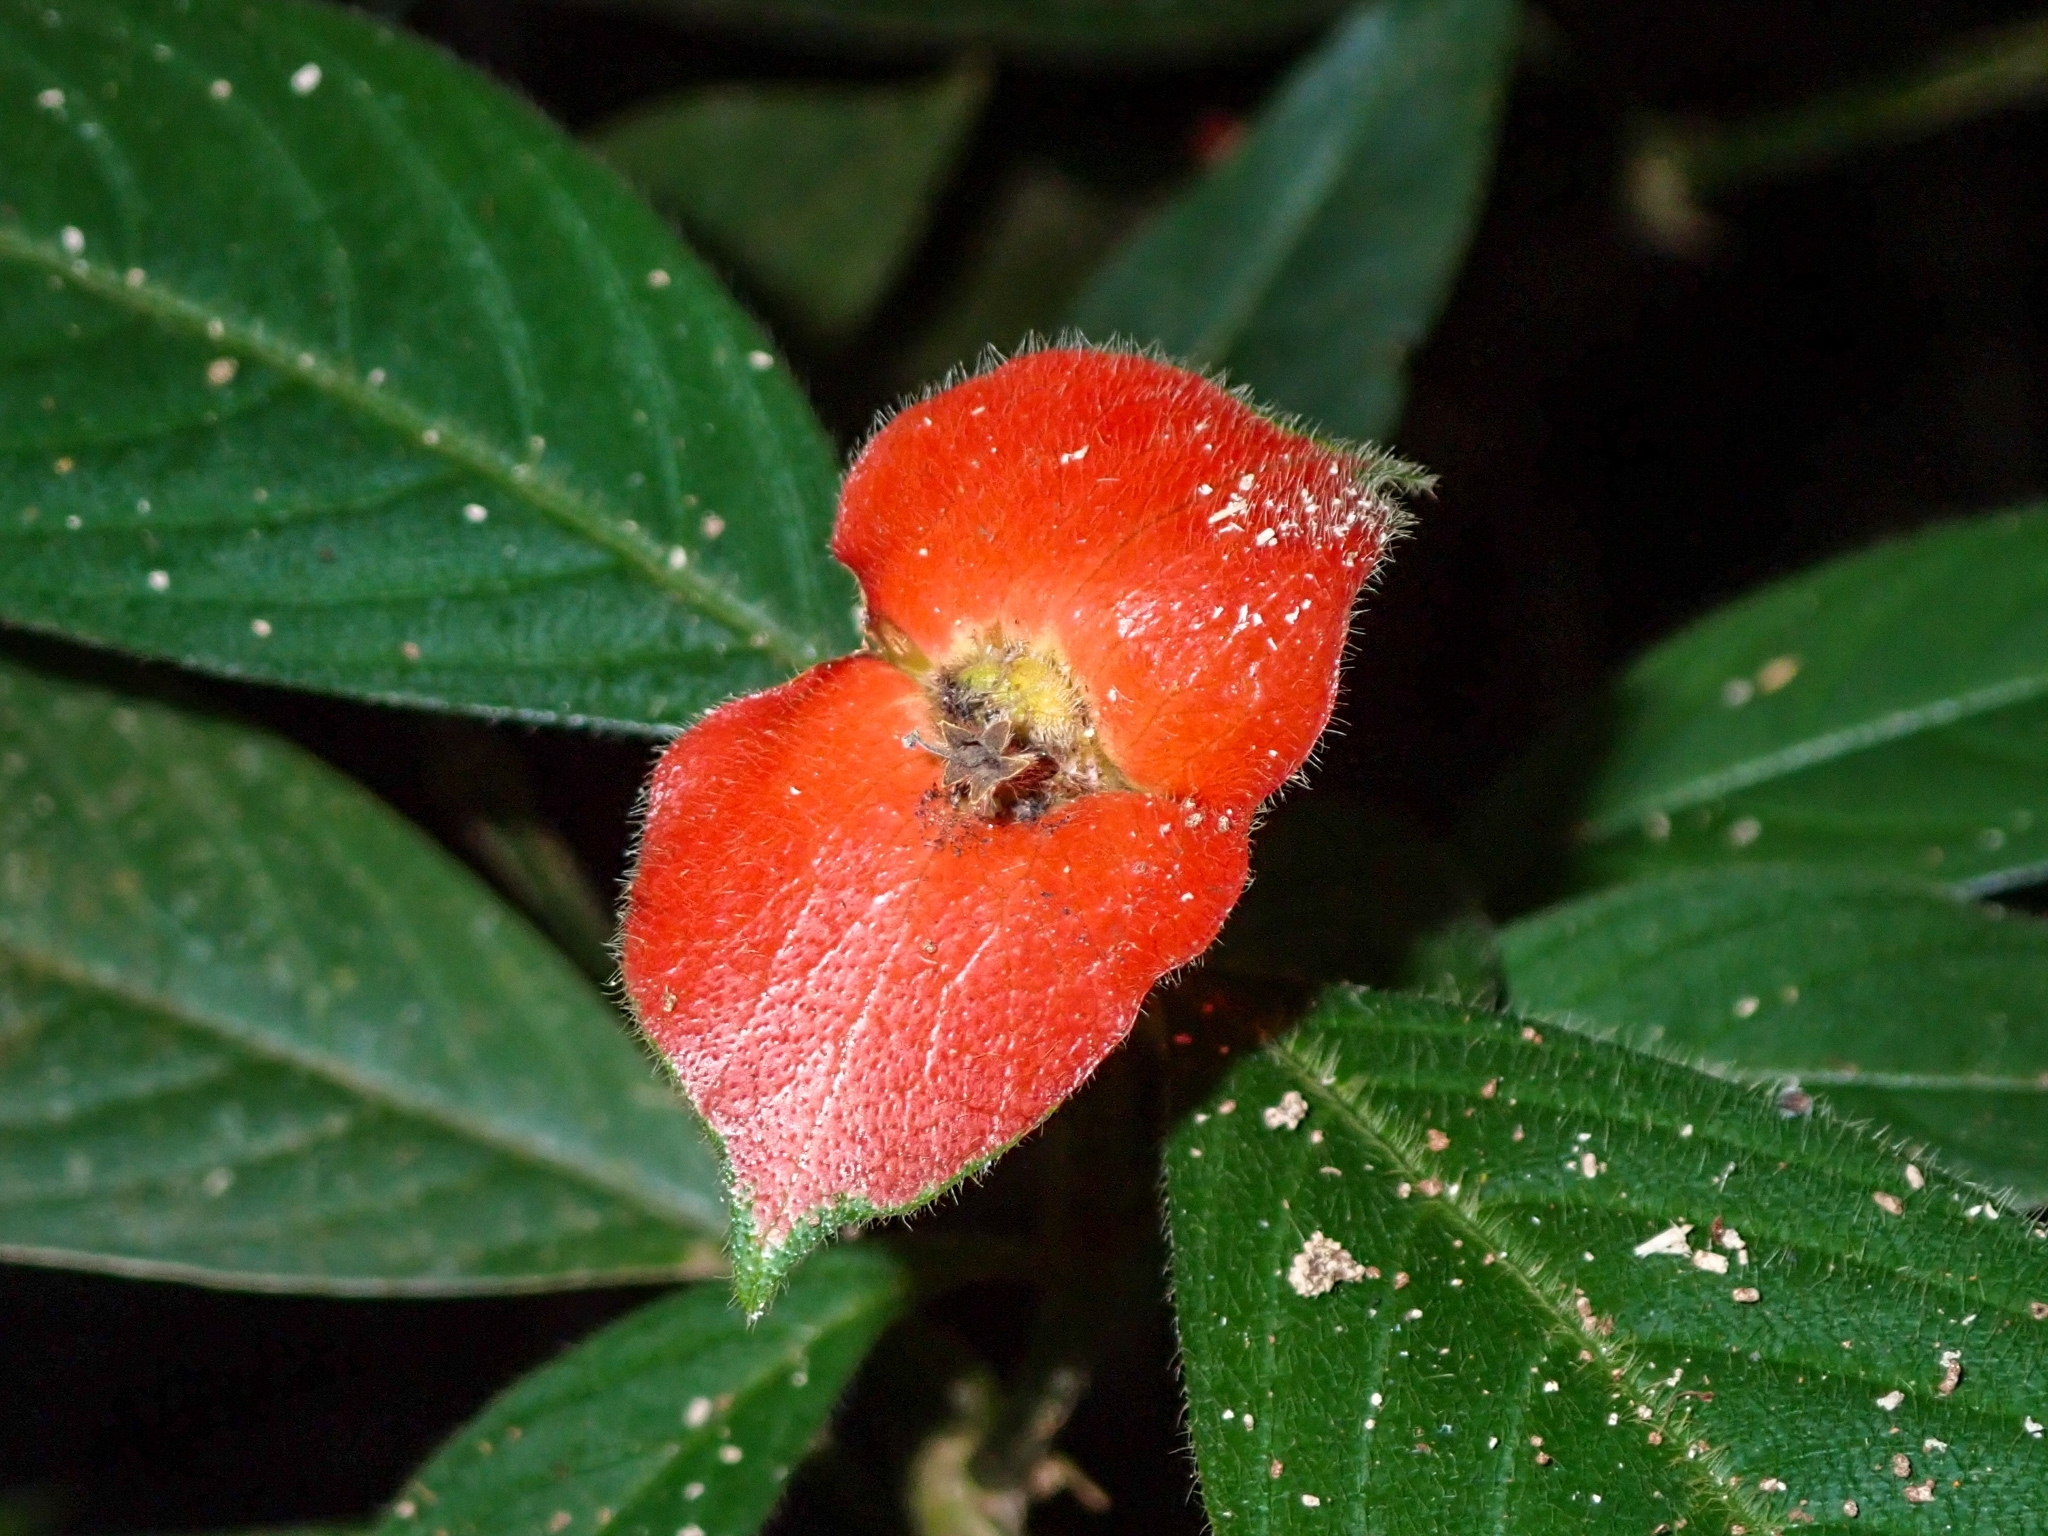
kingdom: Plantae
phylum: Tracheophyta
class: Magnoliopsida
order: Gentianales
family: Rubiaceae
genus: Palicourea
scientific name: Palicourea tomentosa
